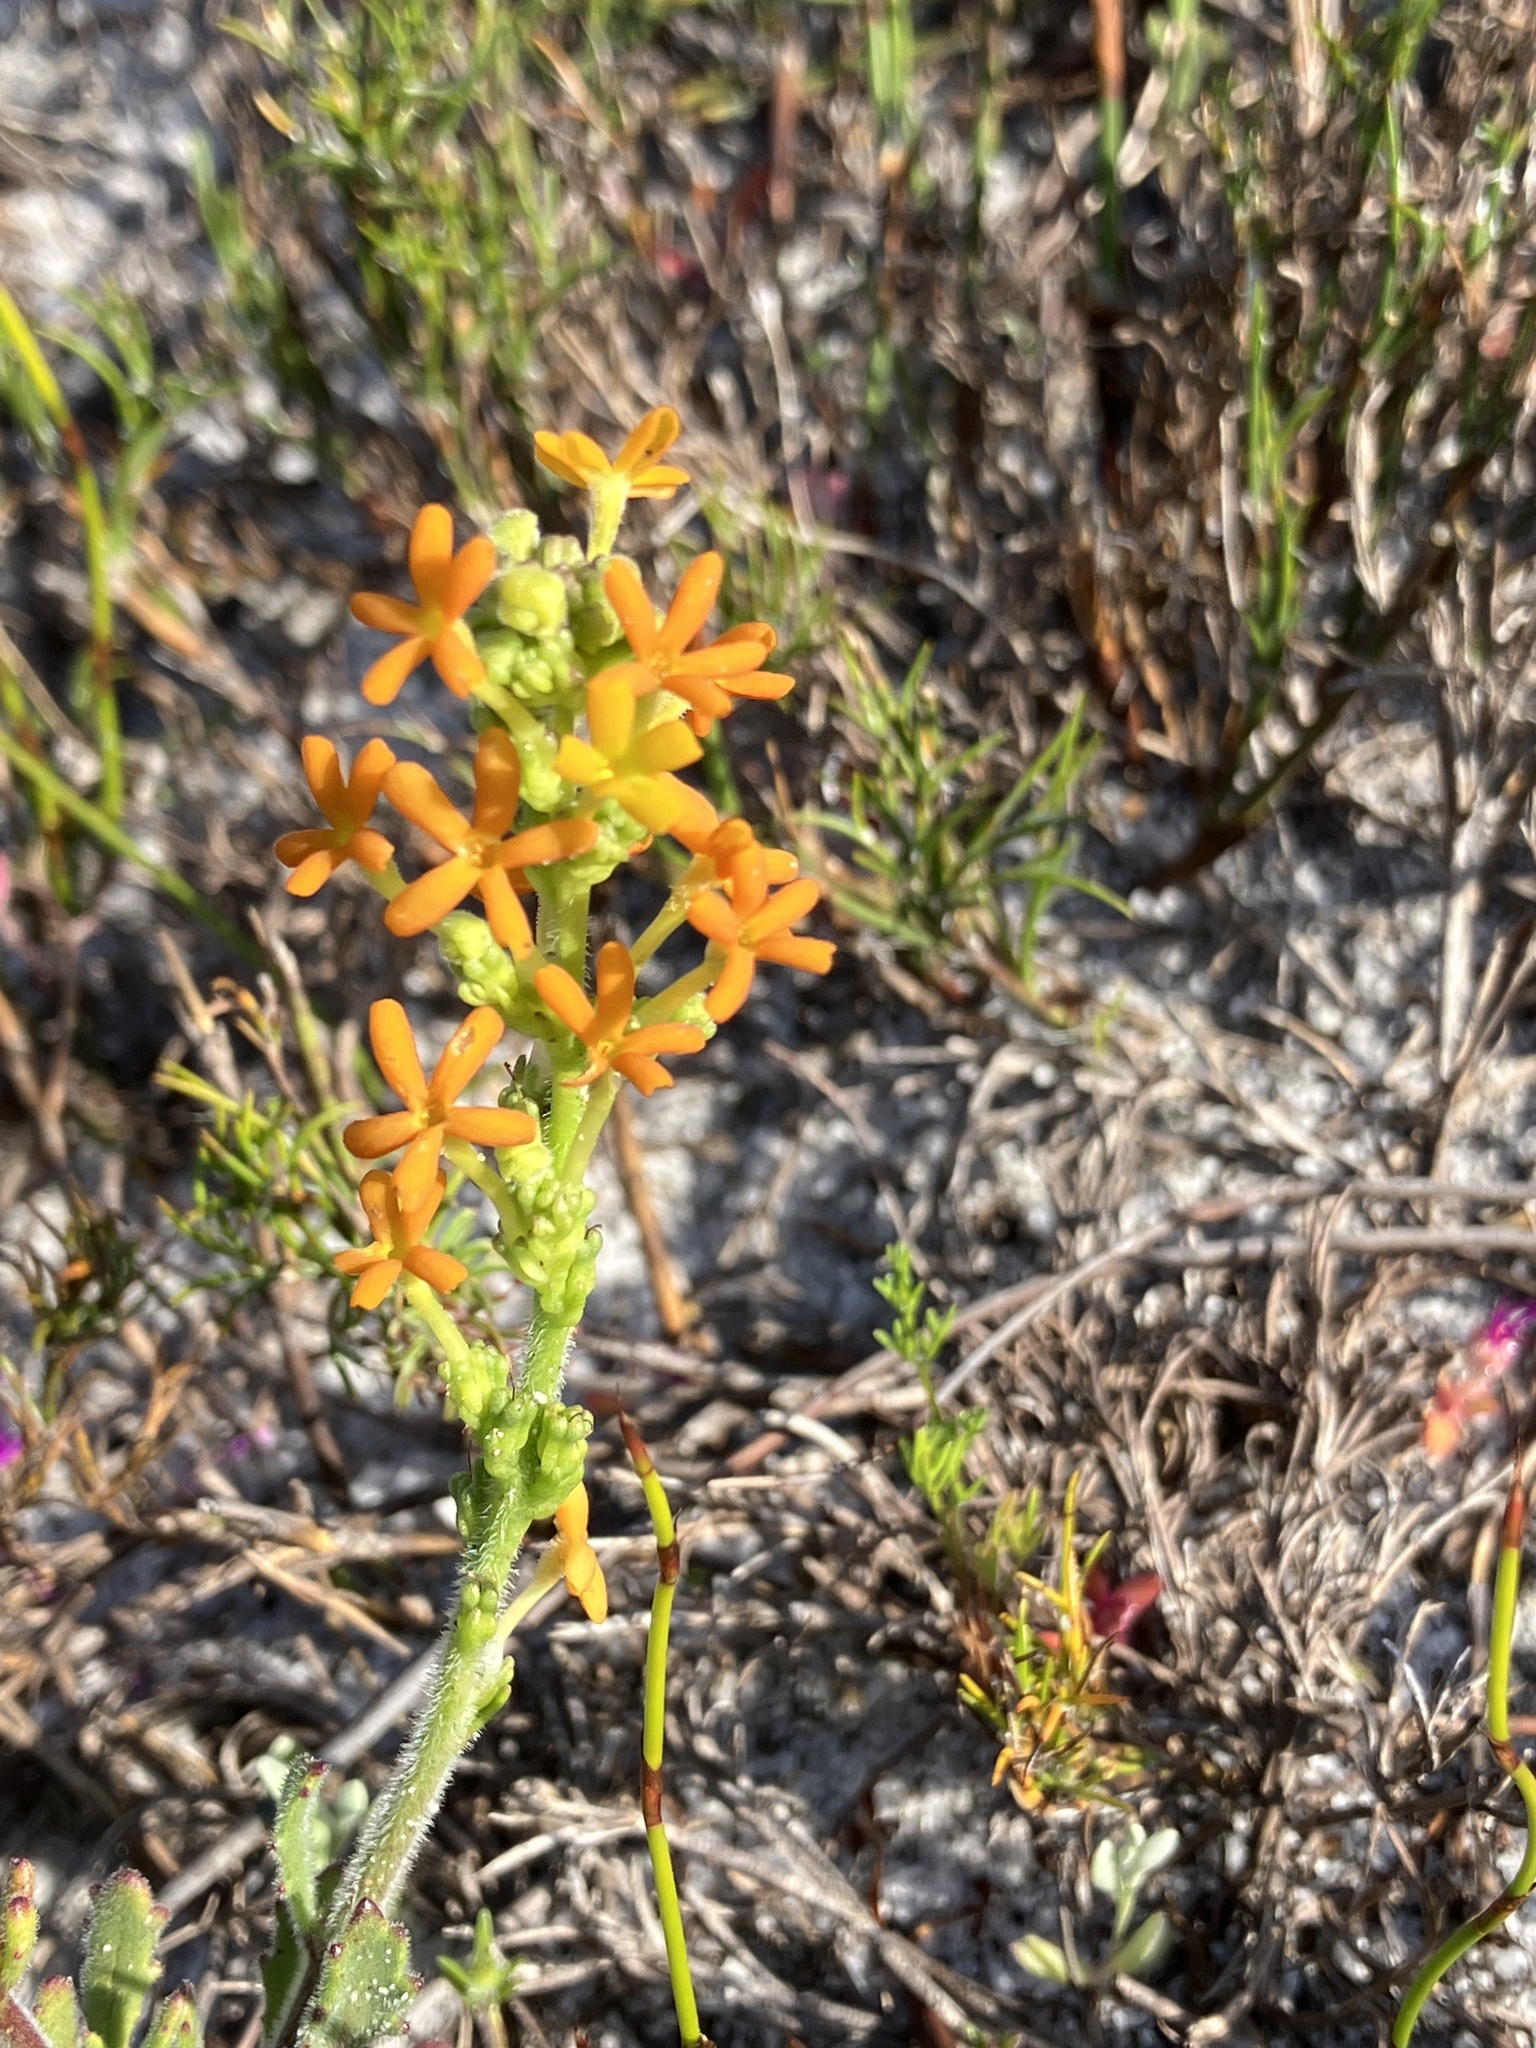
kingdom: Plantae
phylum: Tracheophyta
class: Magnoliopsida
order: Lamiales
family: Scrophulariaceae
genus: Manulea
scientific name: Manulea rubra
